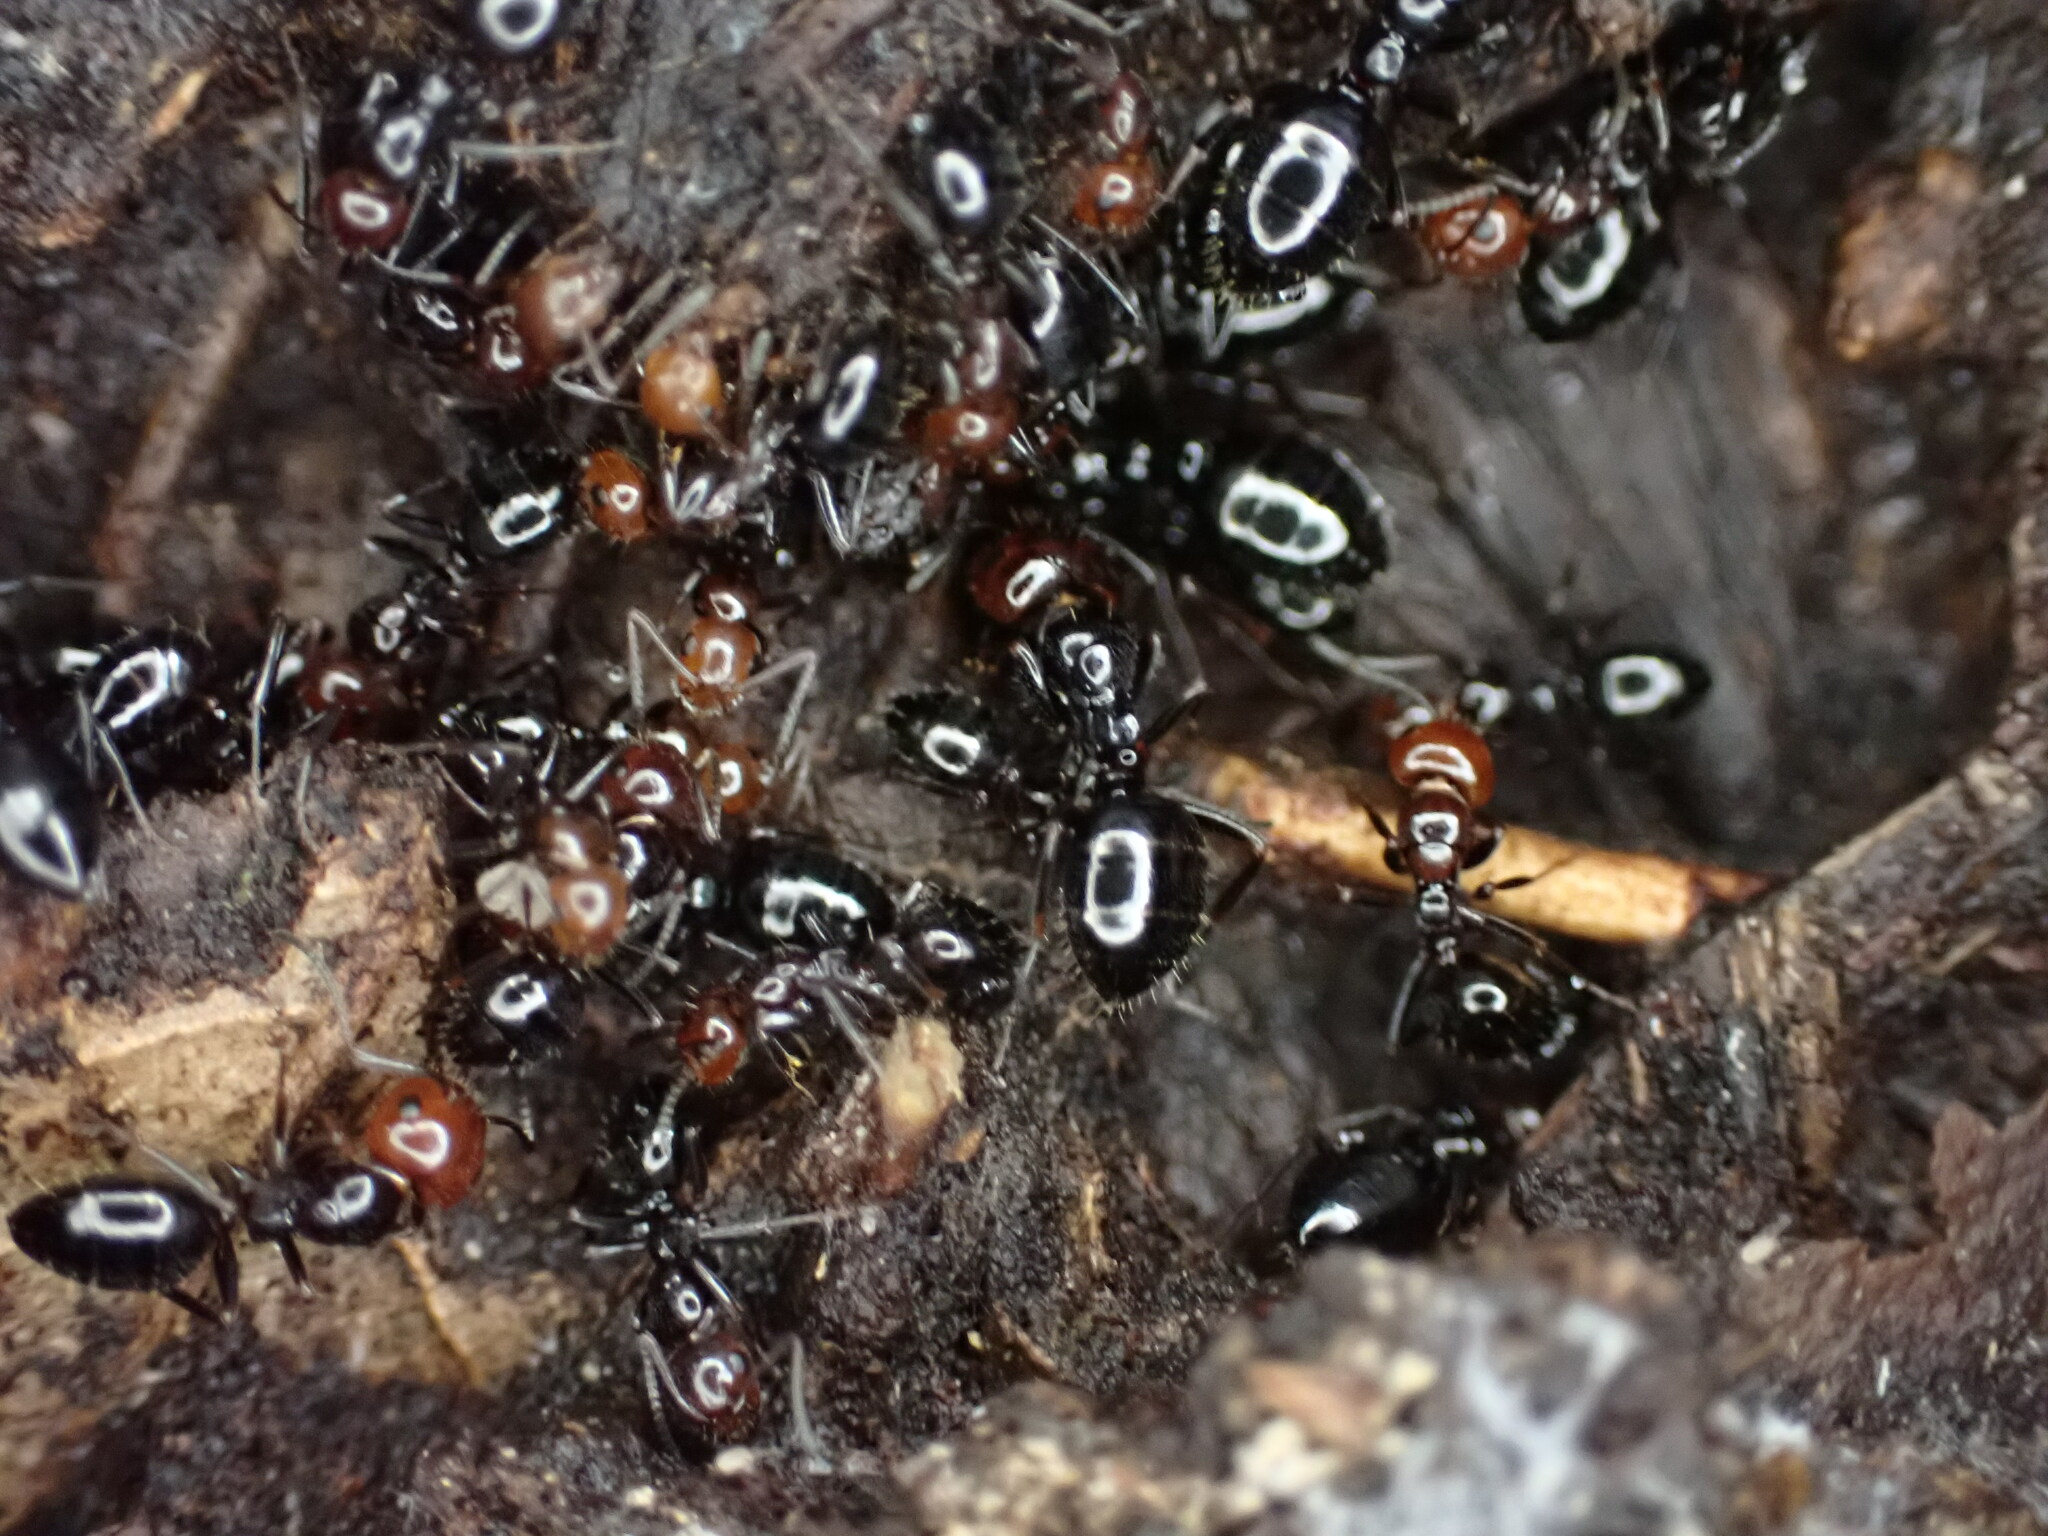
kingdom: Animalia
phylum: Arthropoda
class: Insecta
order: Hymenoptera
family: Formicidae
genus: Camponotus
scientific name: Camponotus lateralis
